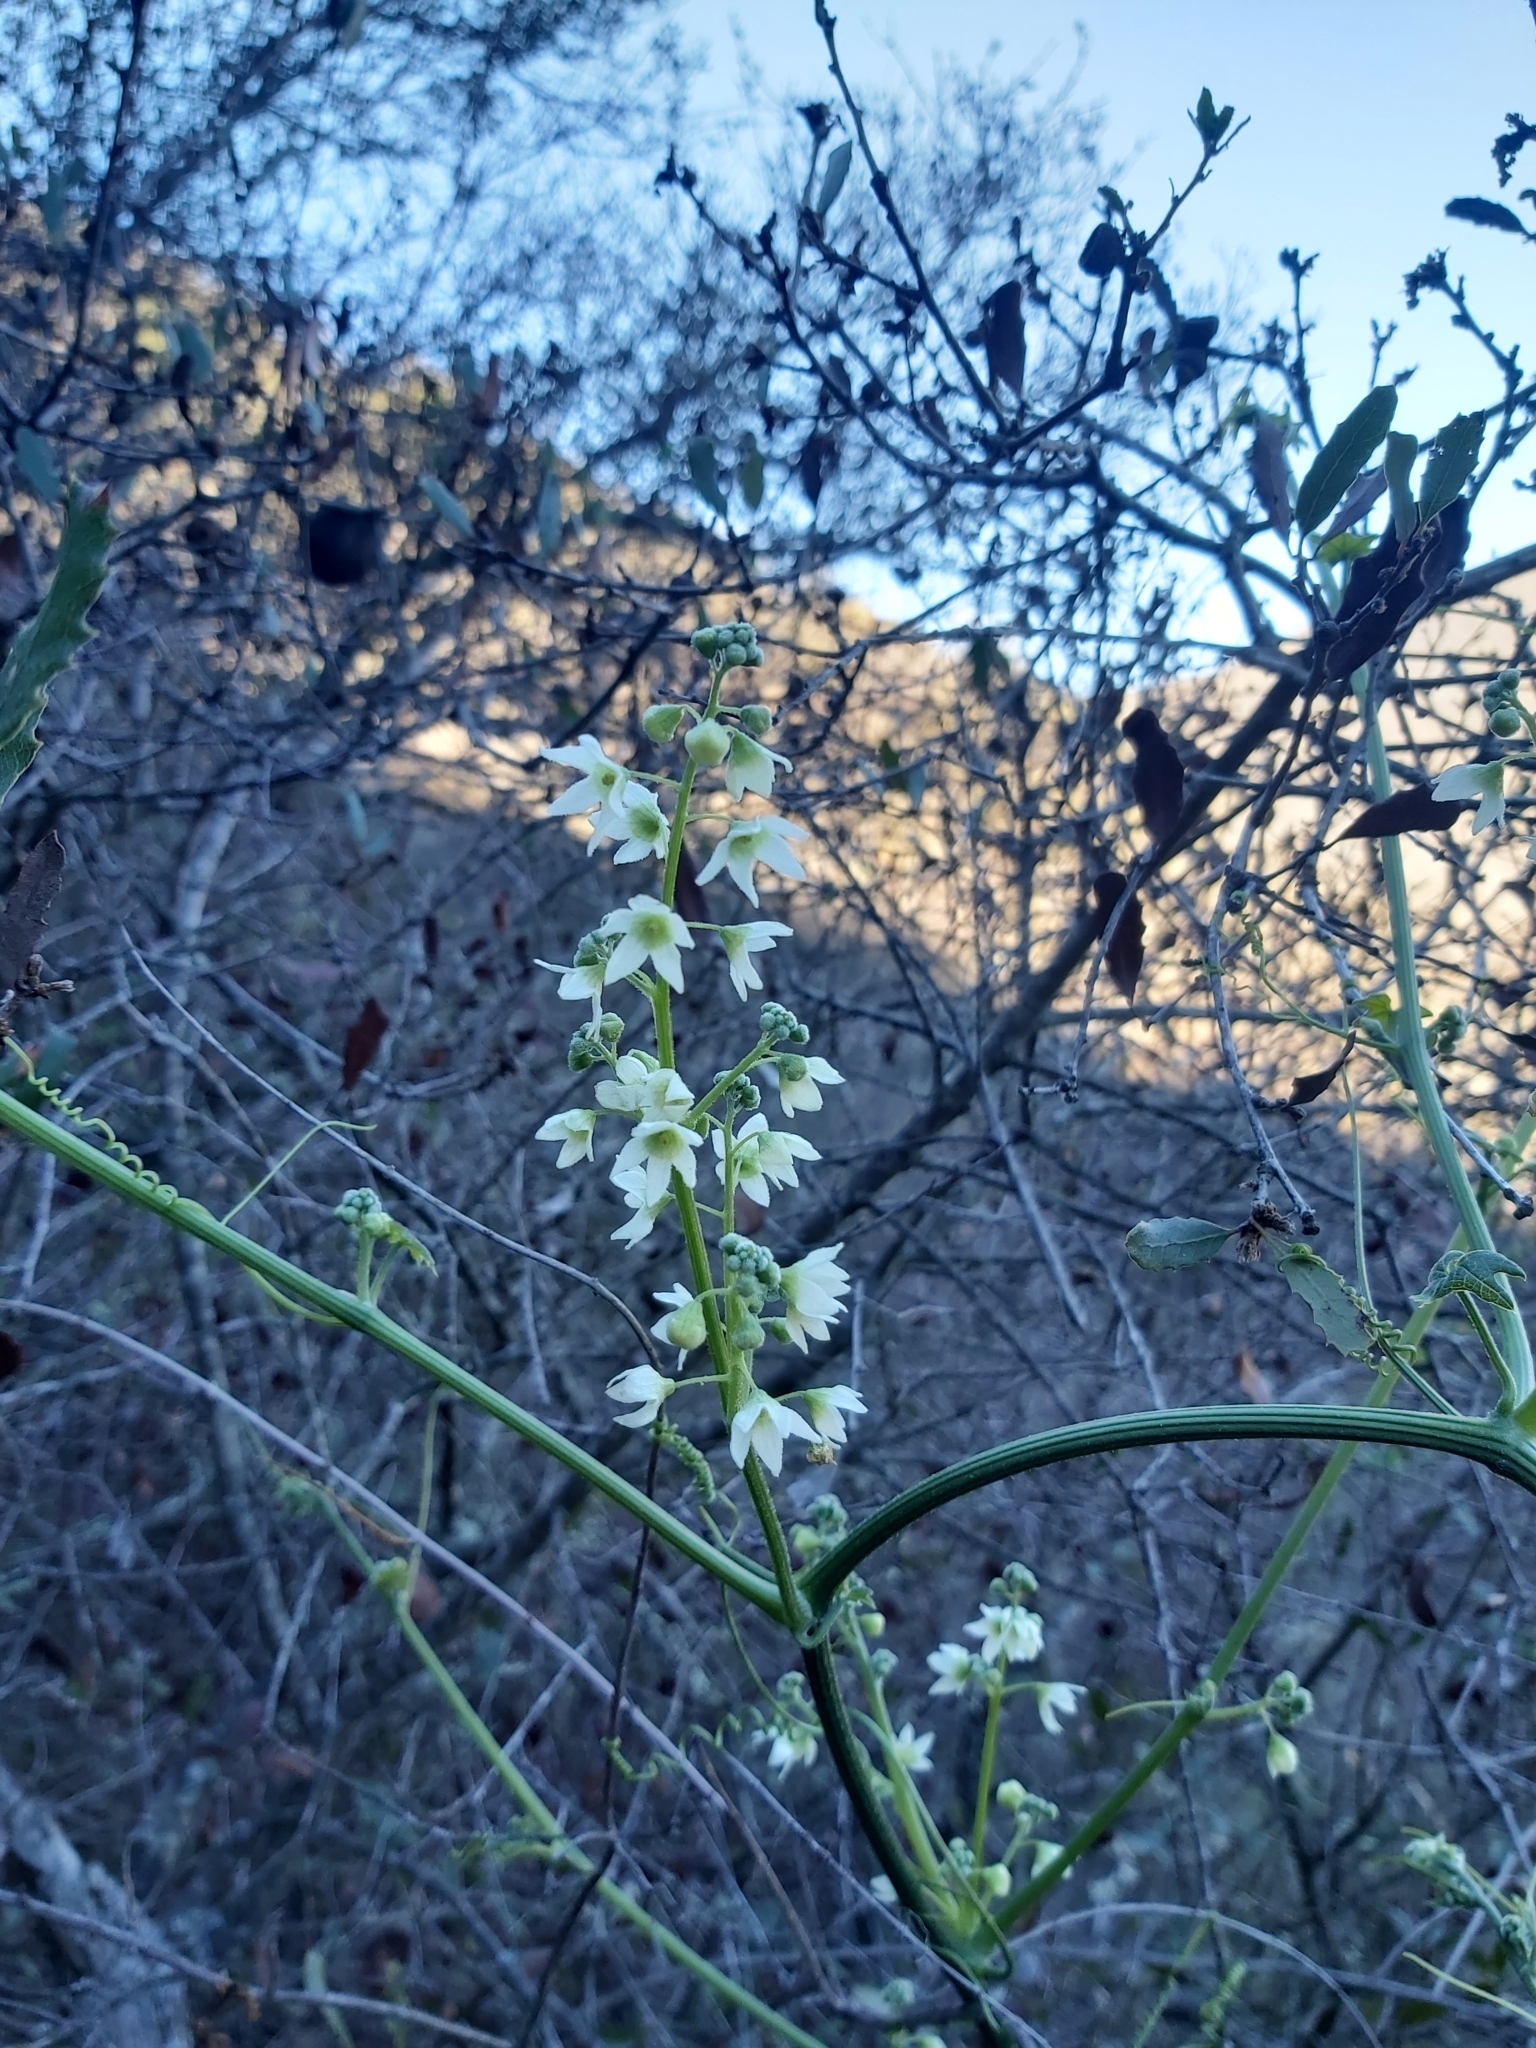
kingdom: Plantae
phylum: Tracheophyta
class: Magnoliopsida
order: Cucurbitales
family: Cucurbitaceae
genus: Marah
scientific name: Marah macrocarpa
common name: Cucamonga manroot
